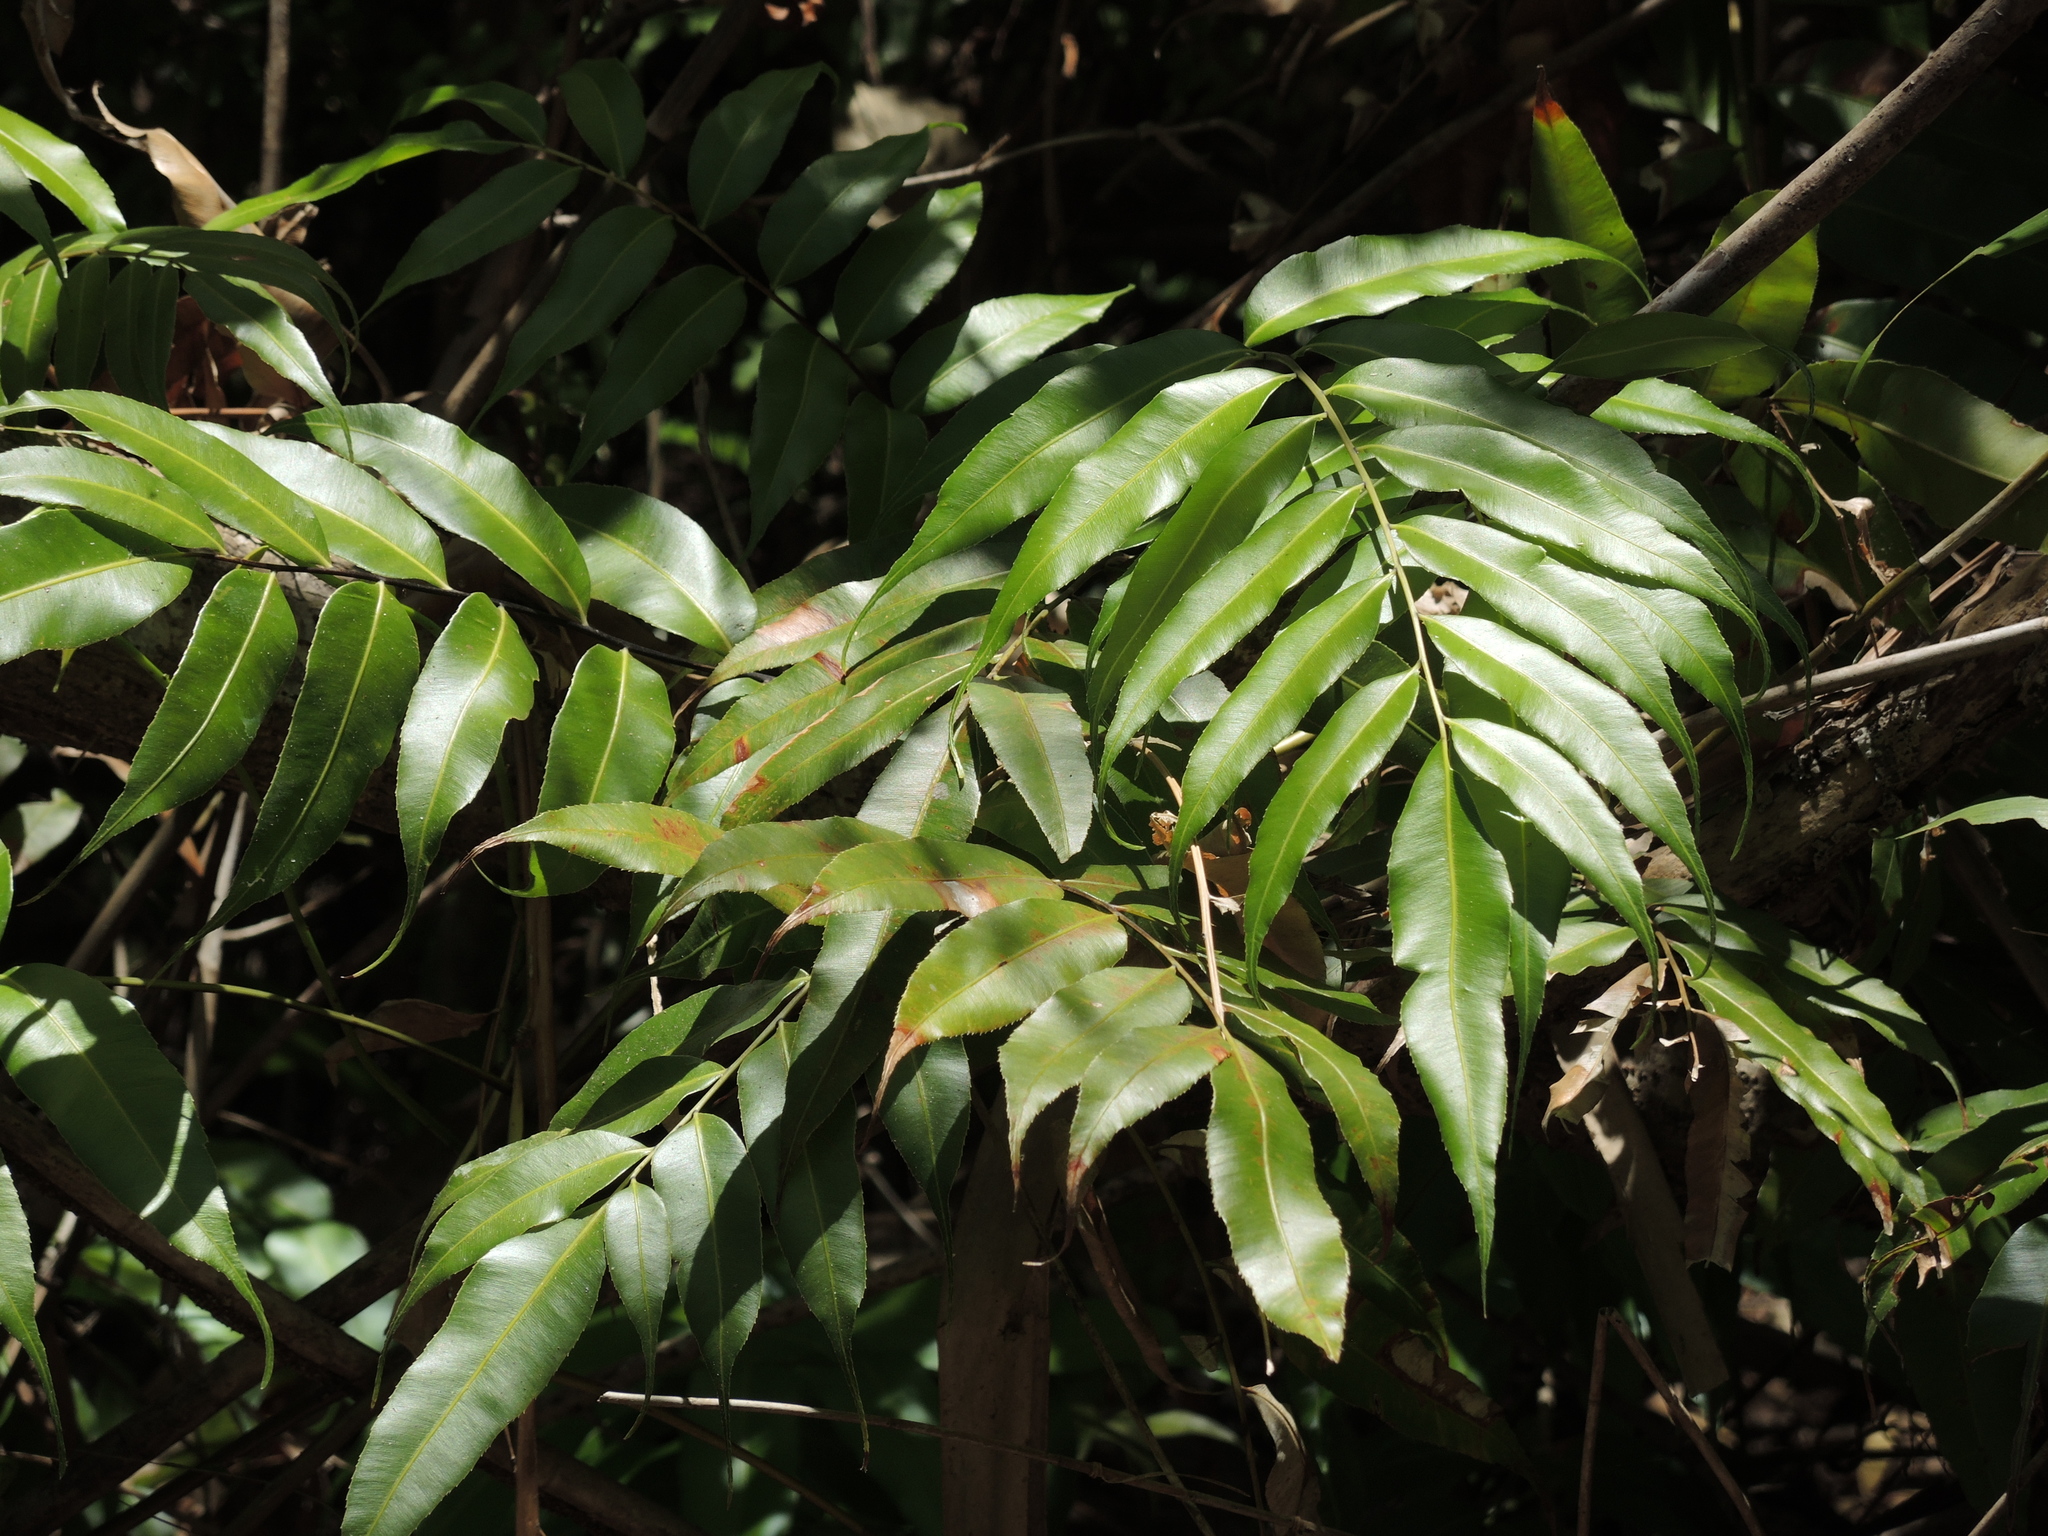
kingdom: Plantae
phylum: Tracheophyta
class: Polypodiopsida
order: Polypodiales
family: Blechnaceae
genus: Stenochlaena
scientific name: Stenochlaena palustris
